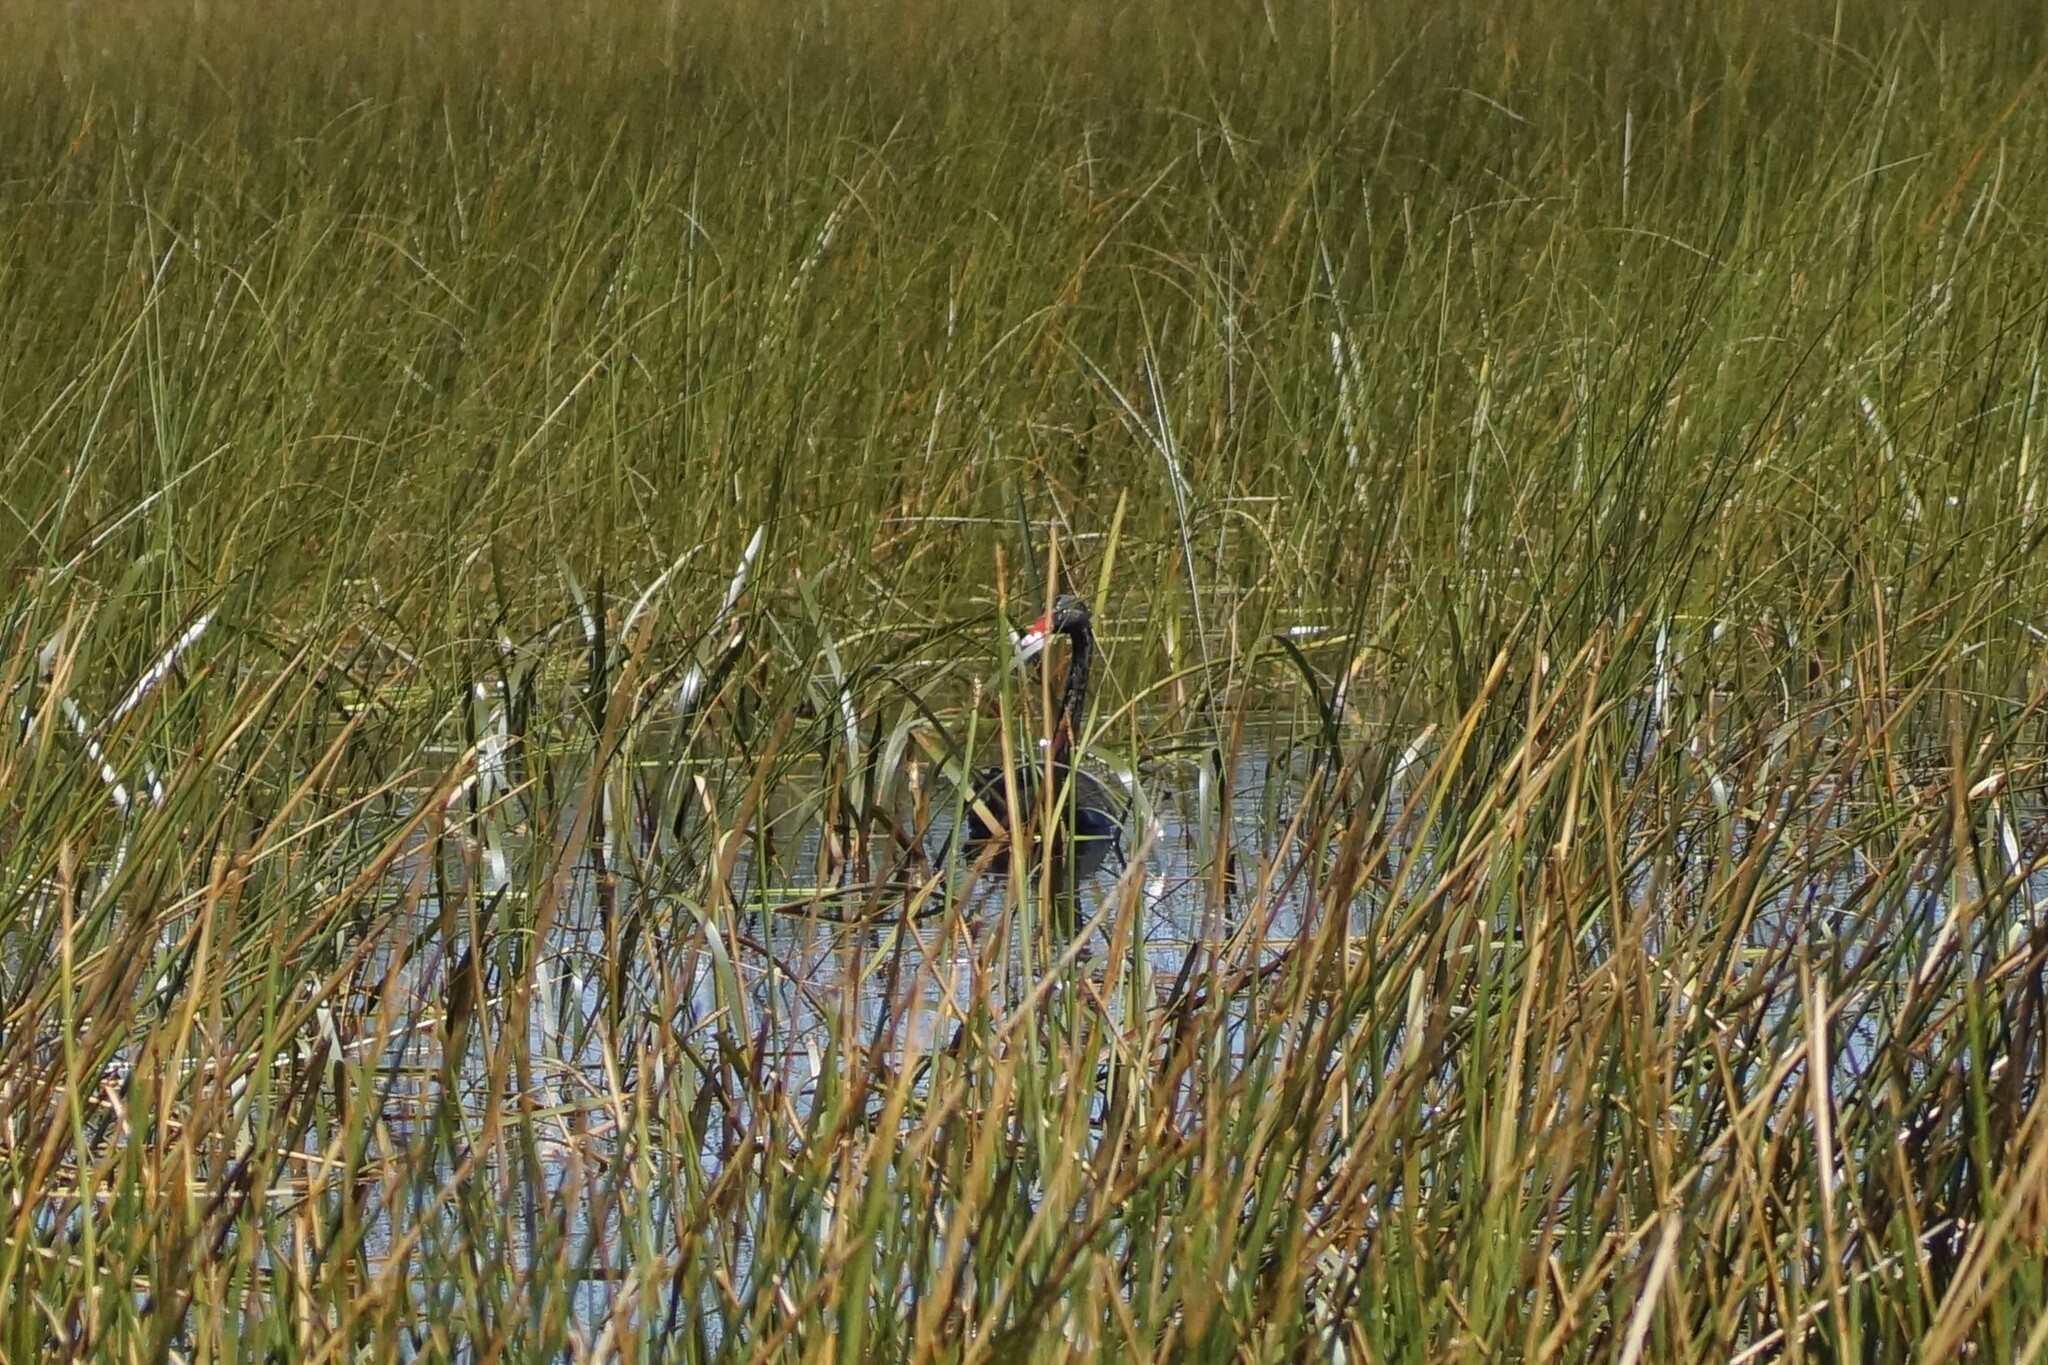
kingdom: Animalia
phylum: Chordata
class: Aves
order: Anseriformes
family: Anatidae
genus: Cygnus
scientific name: Cygnus atratus
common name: Black swan
